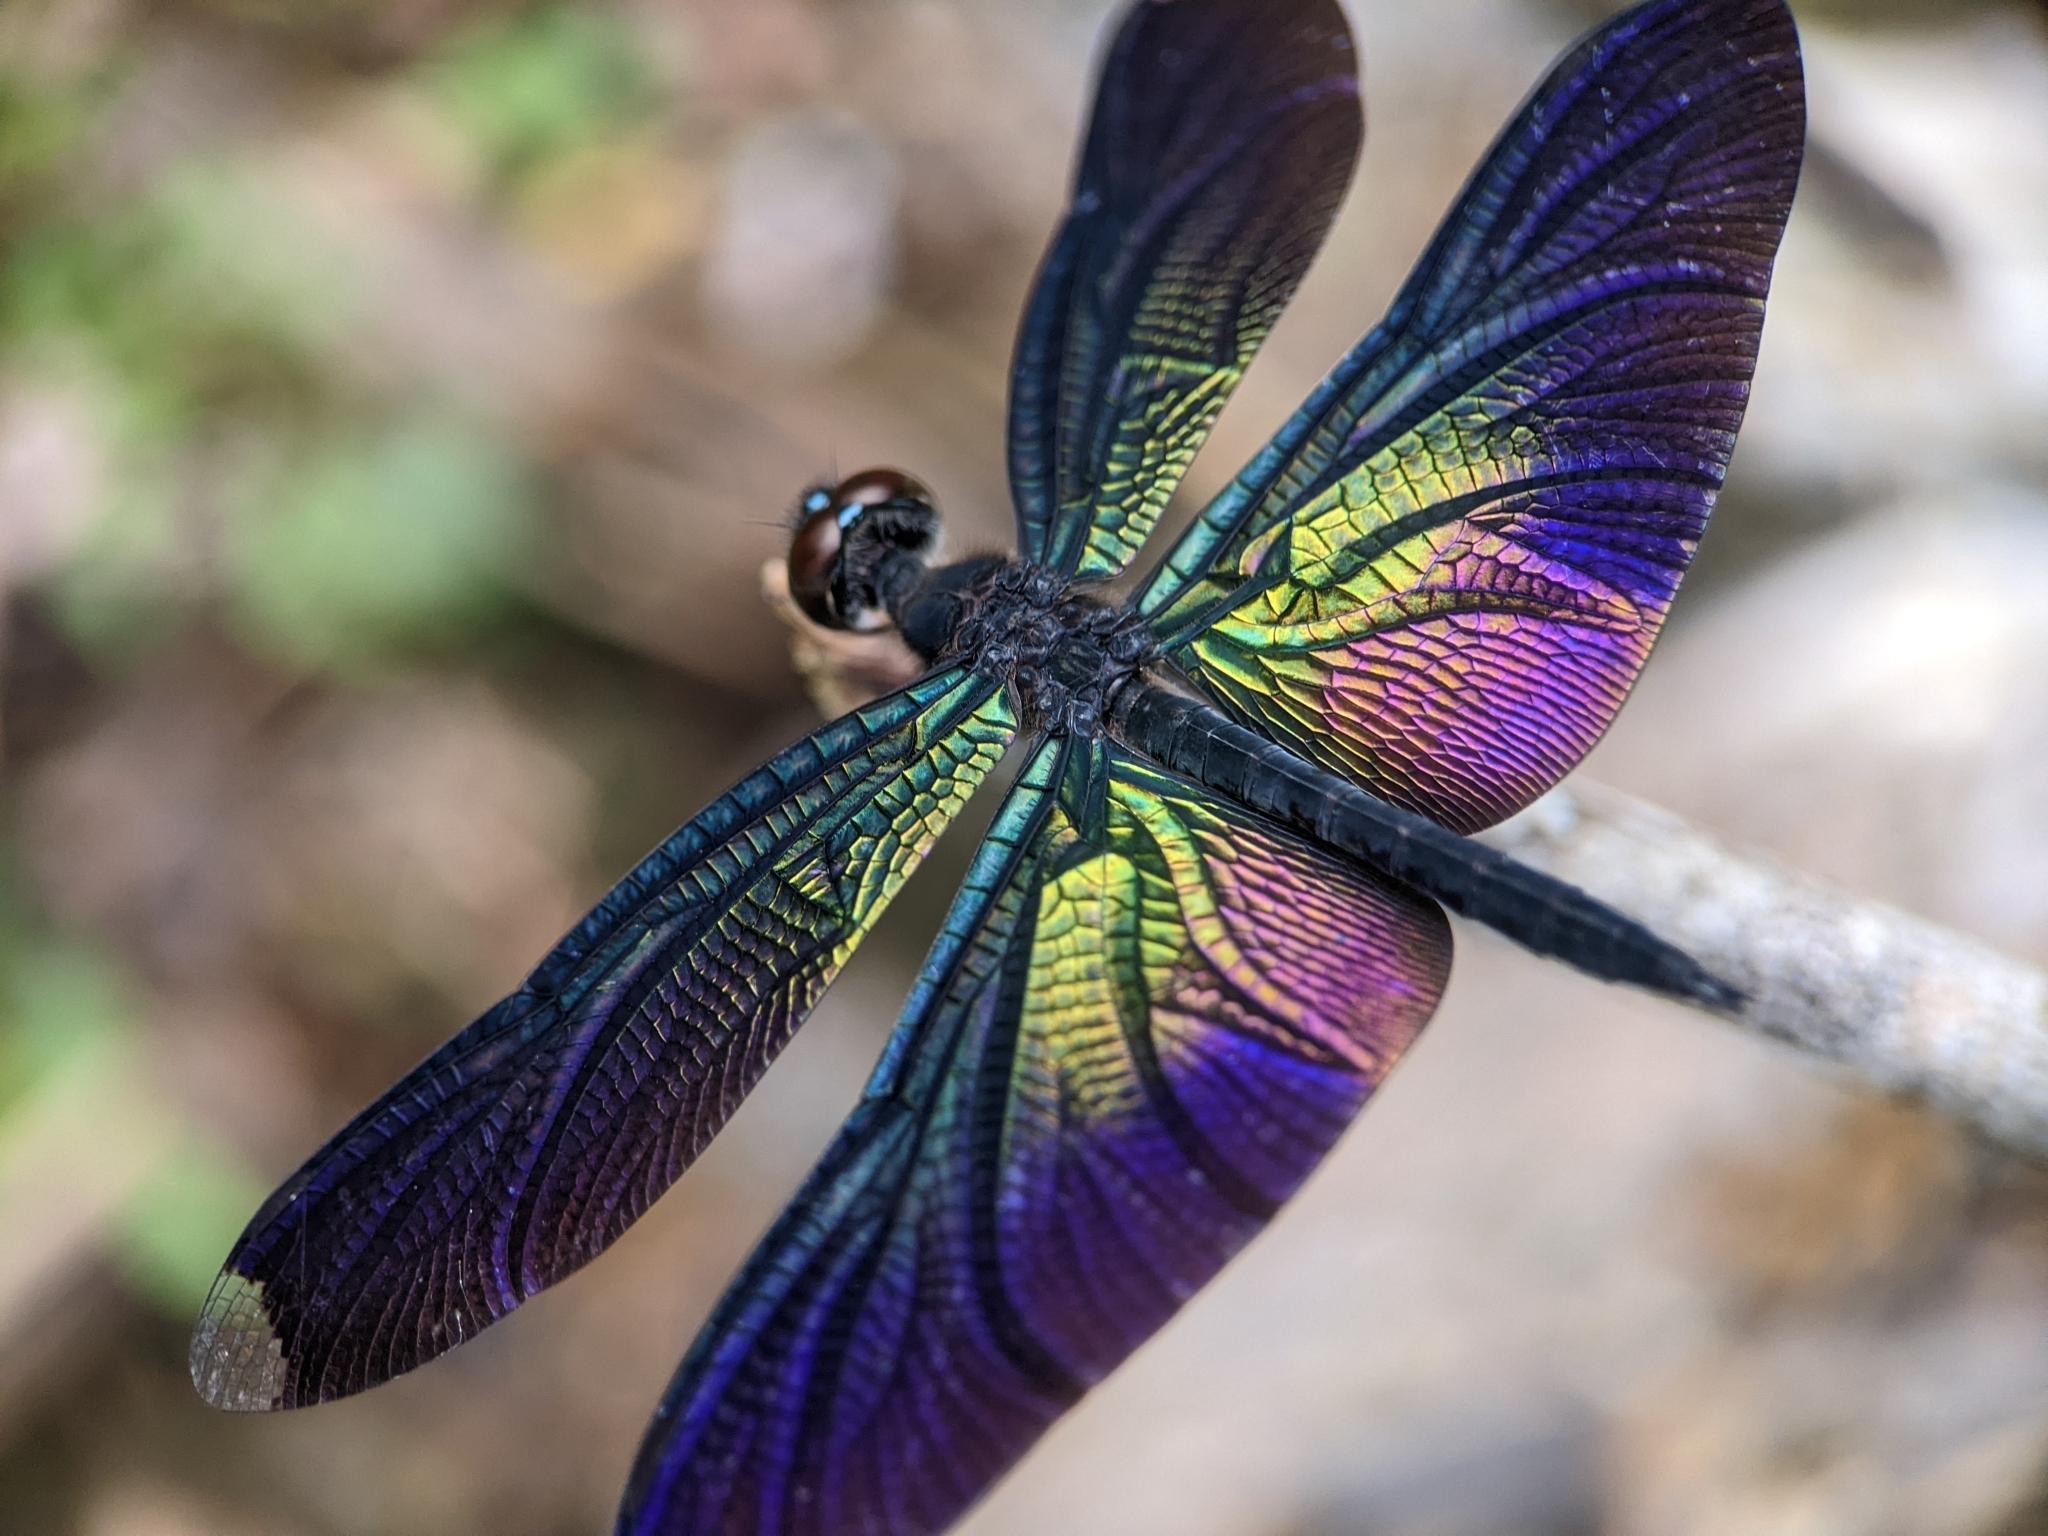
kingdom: Animalia
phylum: Arthropoda
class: Insecta
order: Odonata
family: Libellulidae
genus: Rhyothemis
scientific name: Rhyothemis plutonia
